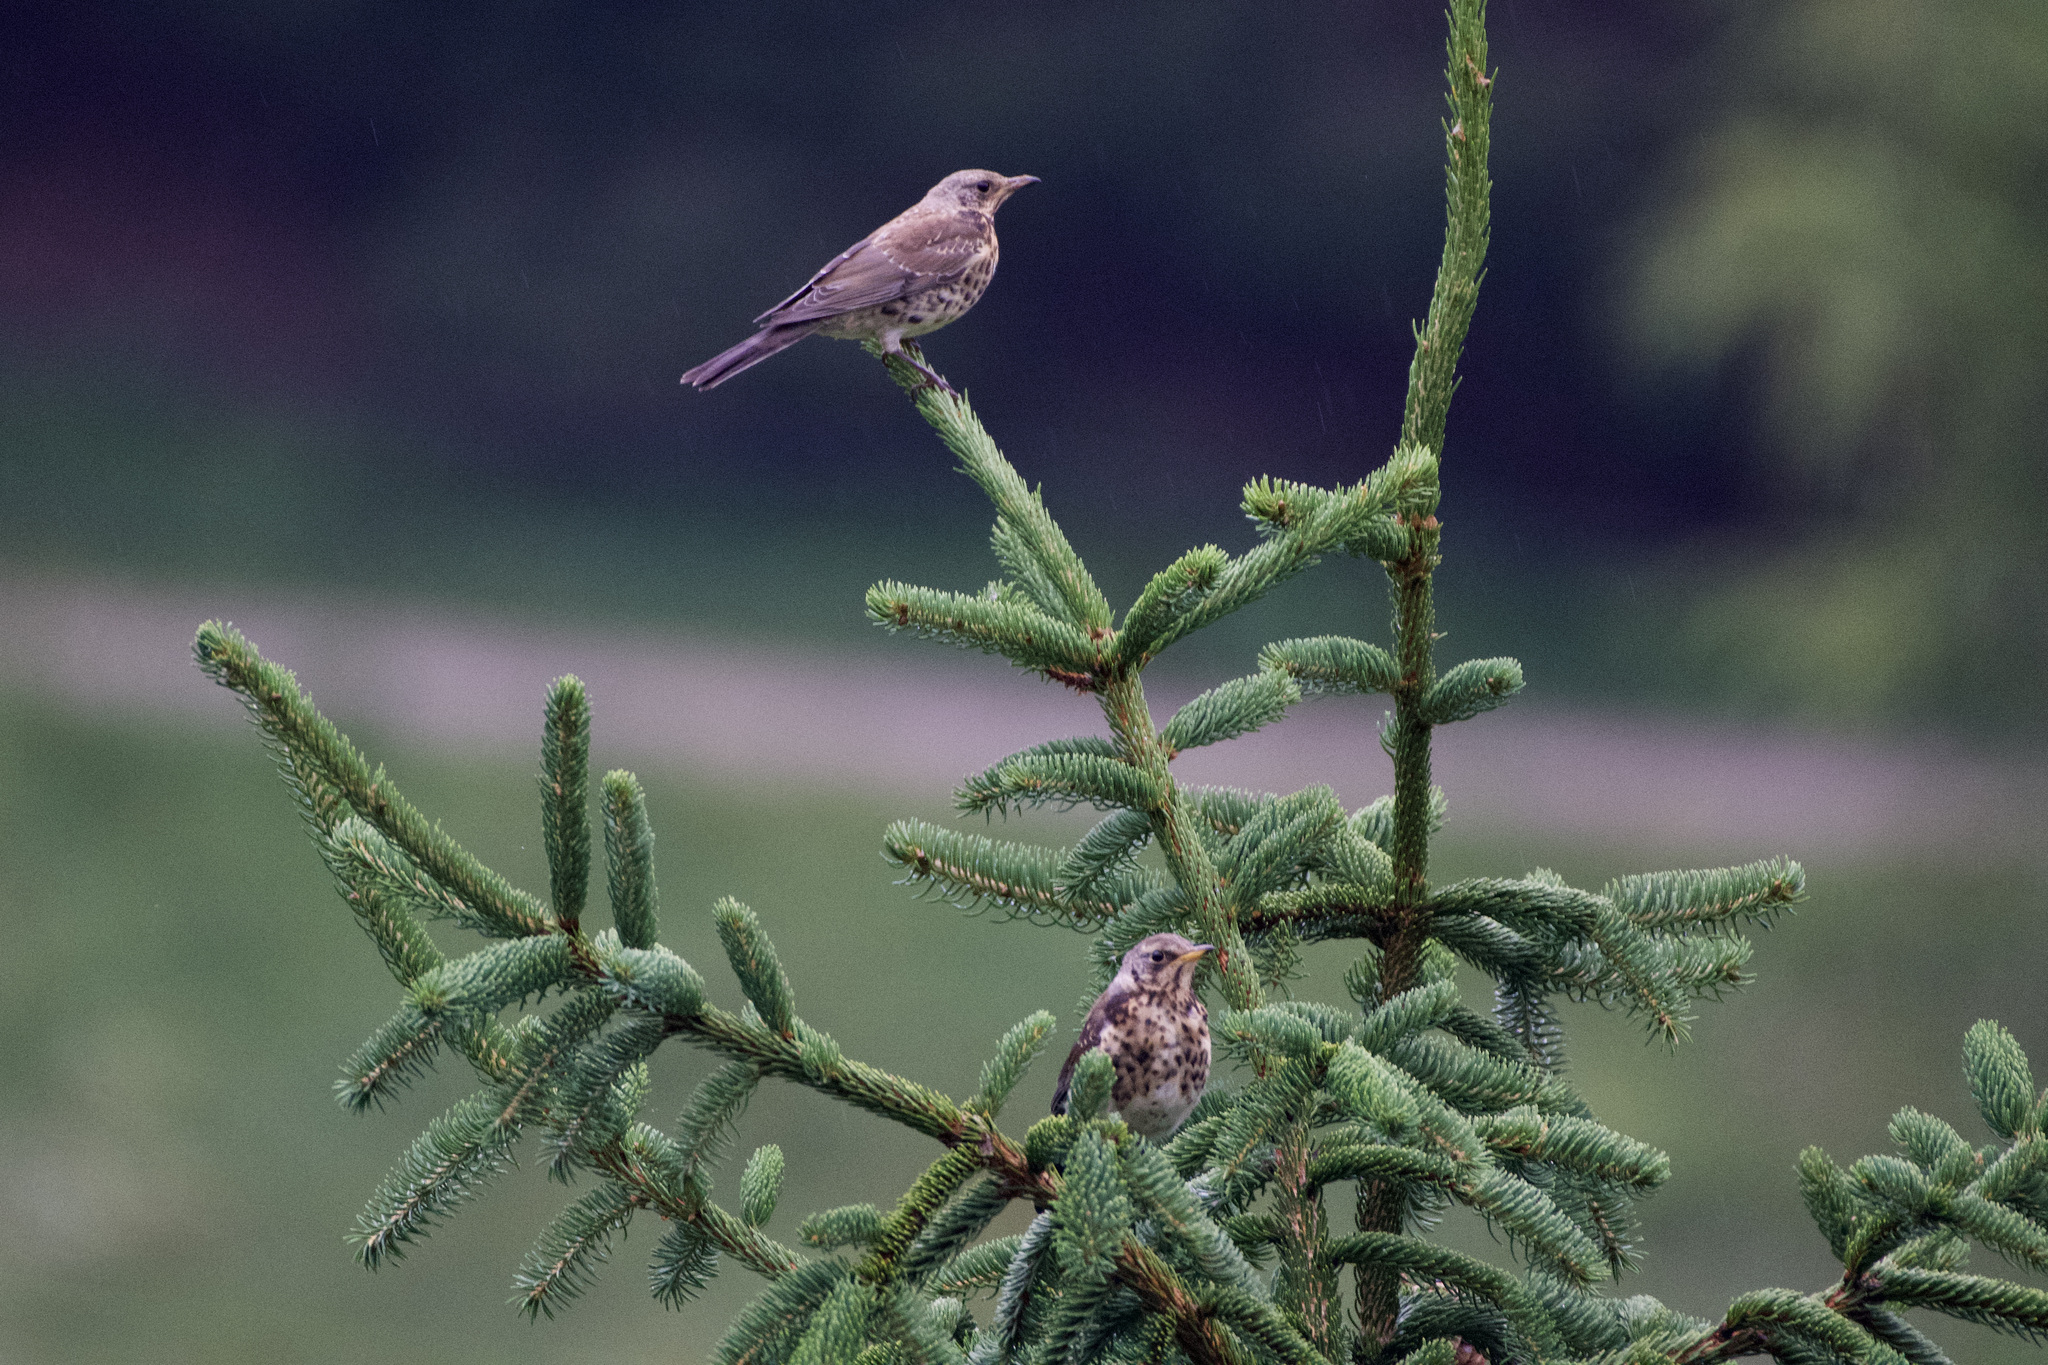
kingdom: Animalia
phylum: Chordata
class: Aves
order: Passeriformes
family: Turdidae
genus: Turdus
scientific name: Turdus pilaris
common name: Fieldfare
